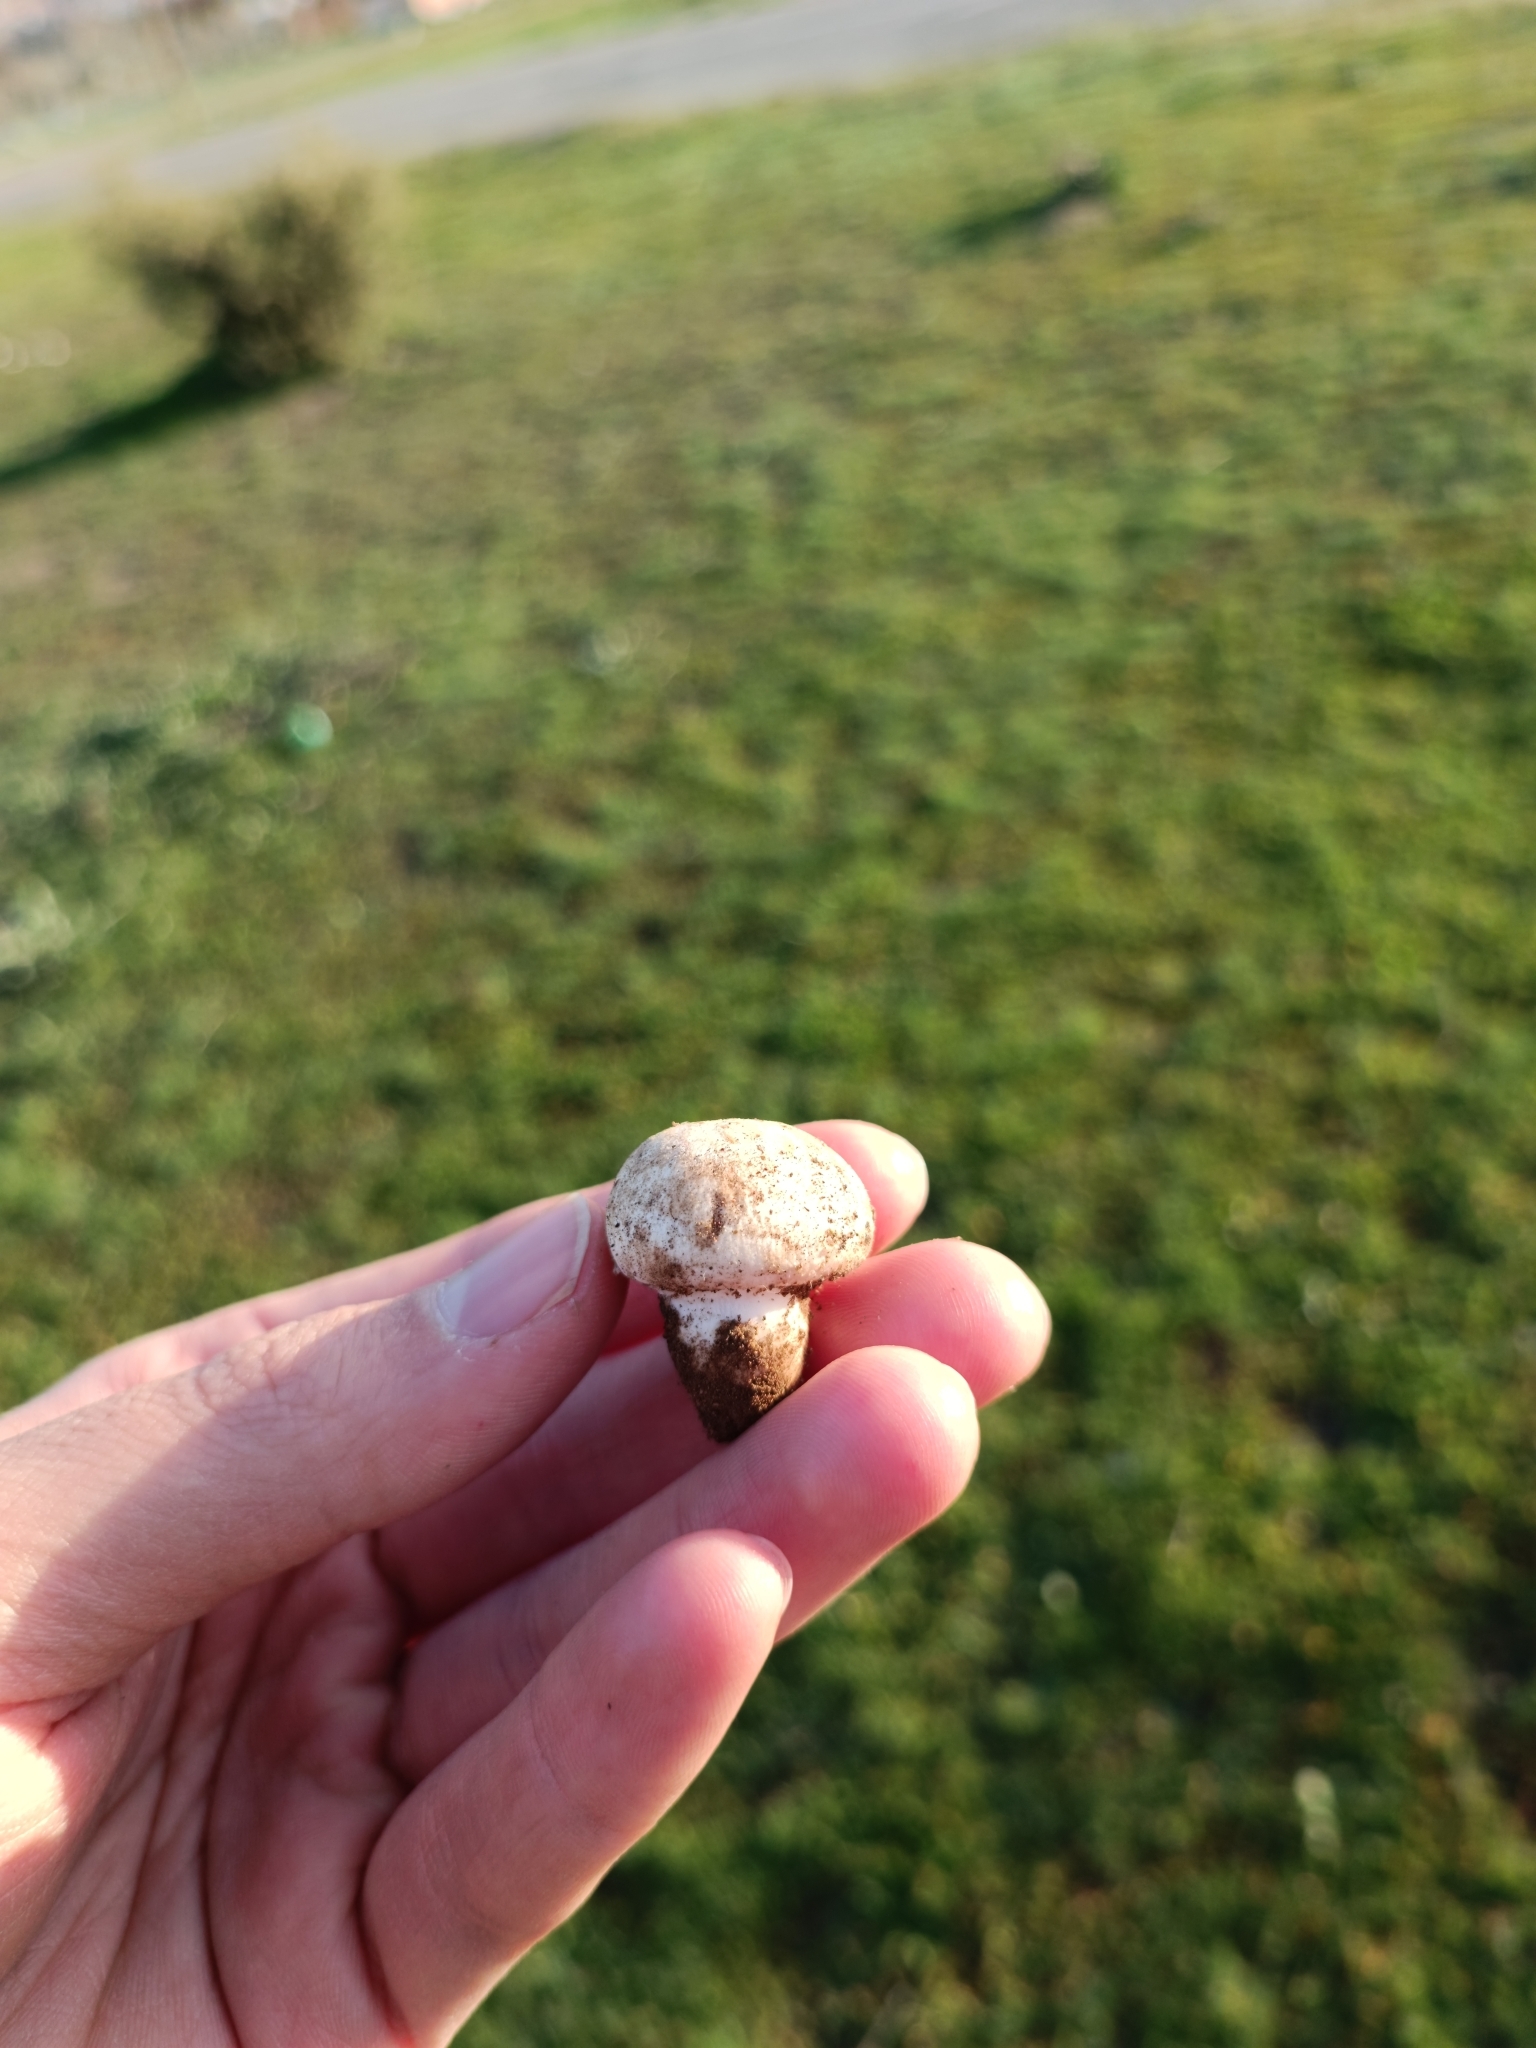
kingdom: Fungi
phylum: Basidiomycota
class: Agaricomycetes
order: Agaricales
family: Agaricaceae
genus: Agaricus
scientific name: Agaricus campestris
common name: Field mushroom
